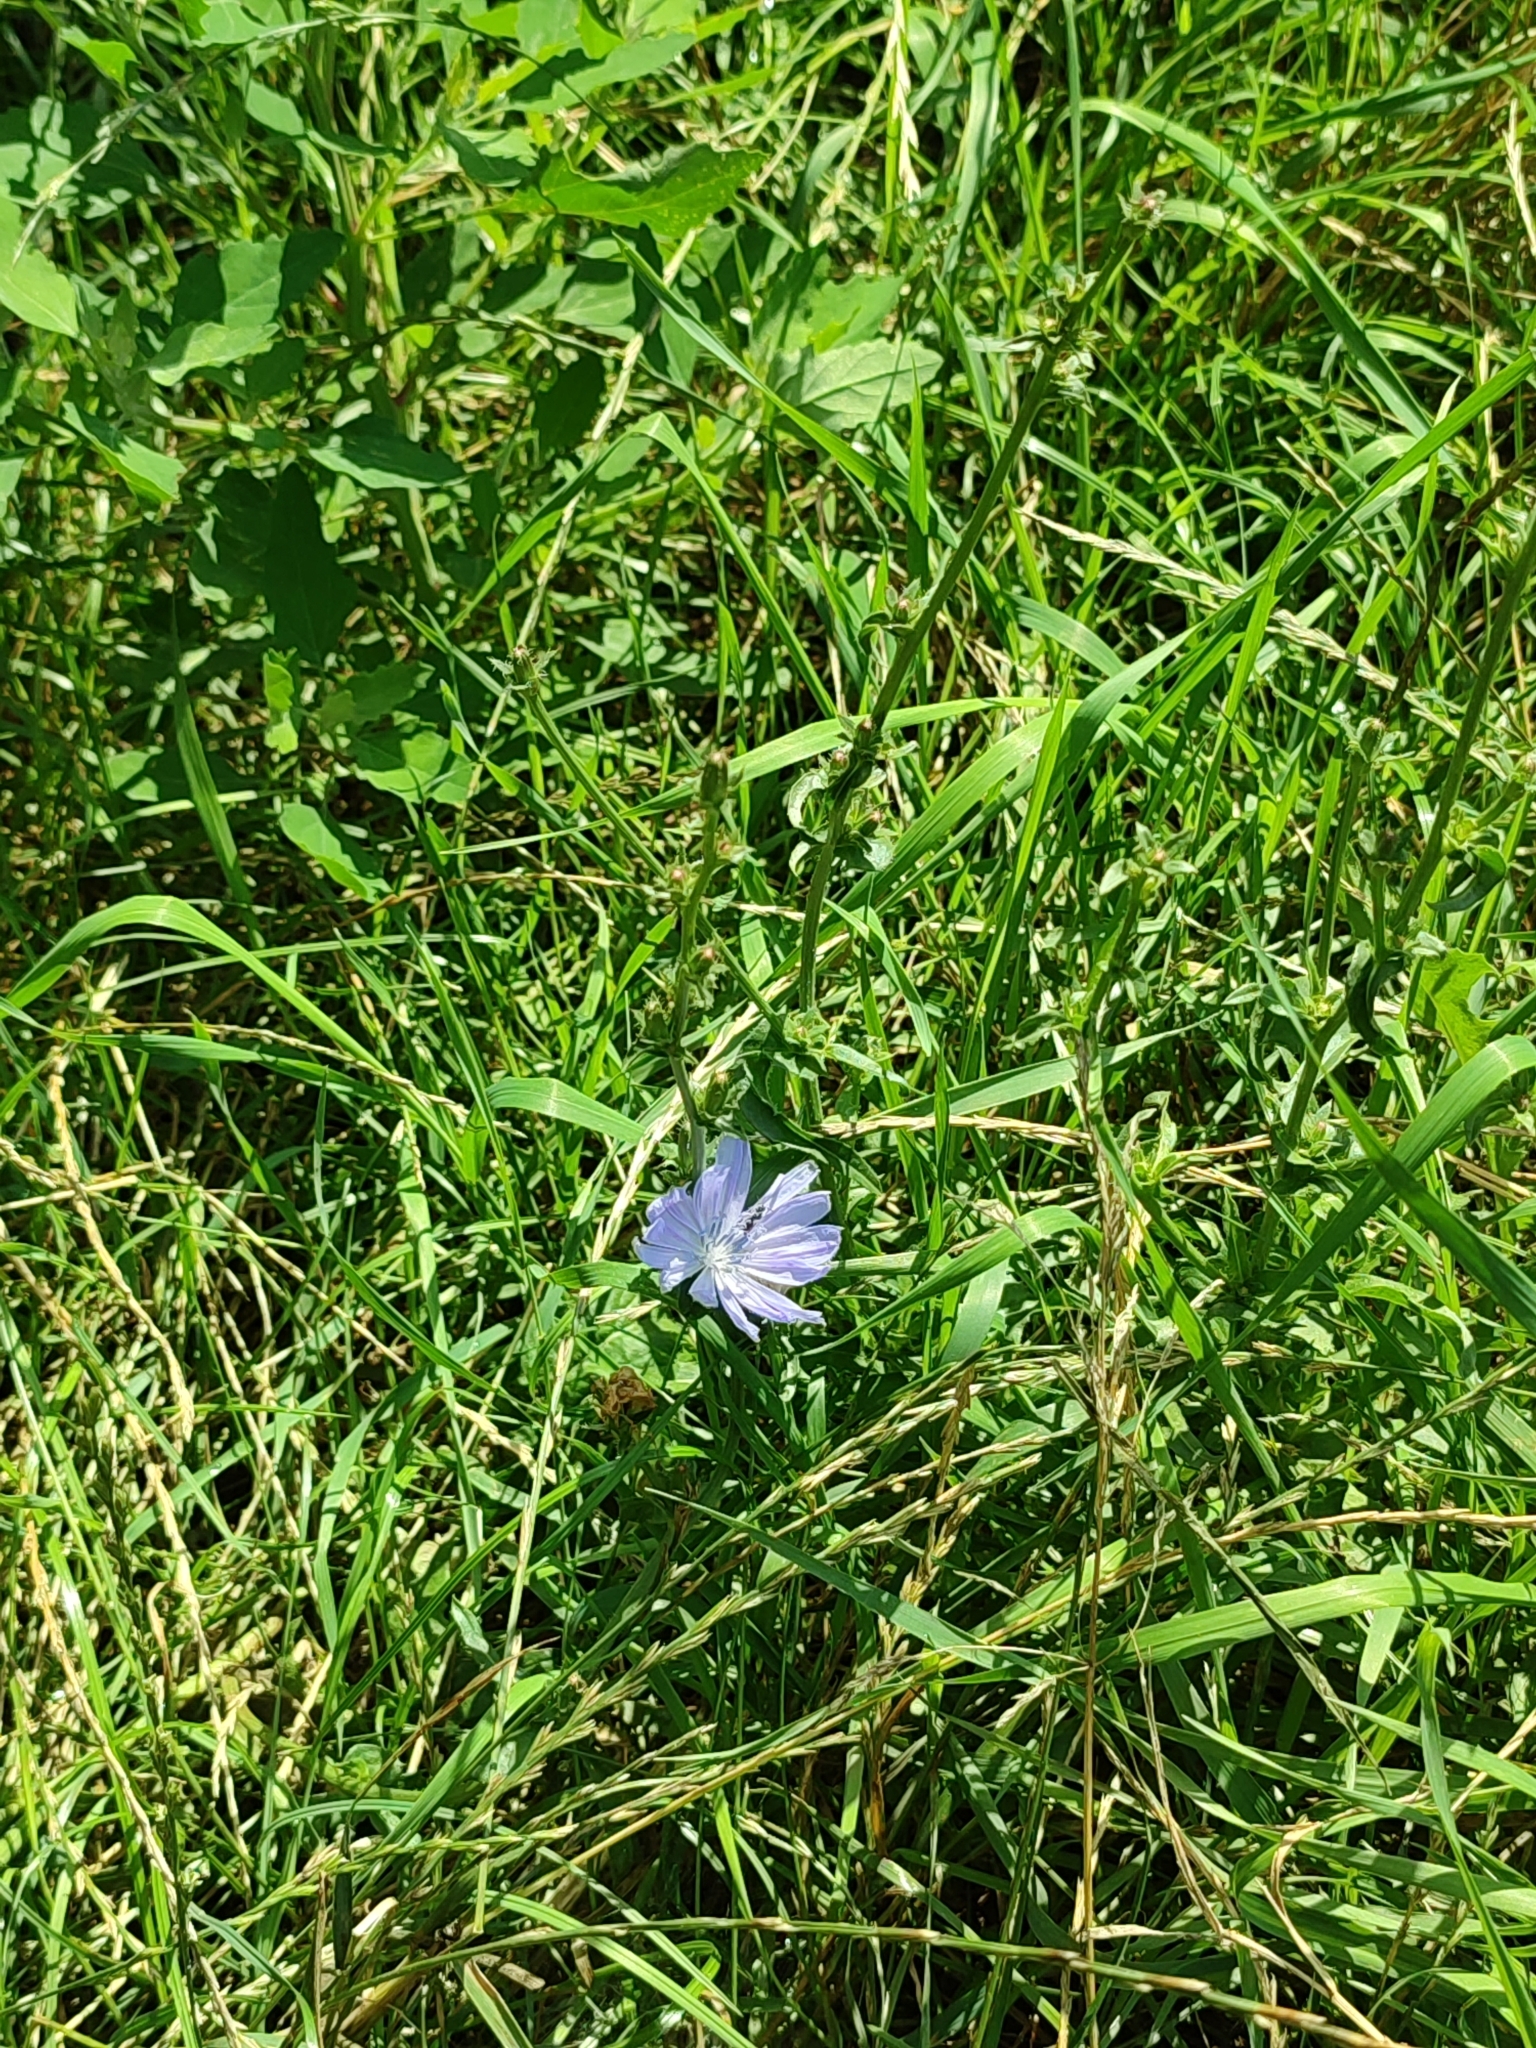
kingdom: Plantae
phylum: Tracheophyta
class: Magnoliopsida
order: Asterales
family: Asteraceae
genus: Cichorium
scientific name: Cichorium intybus
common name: Chicory
